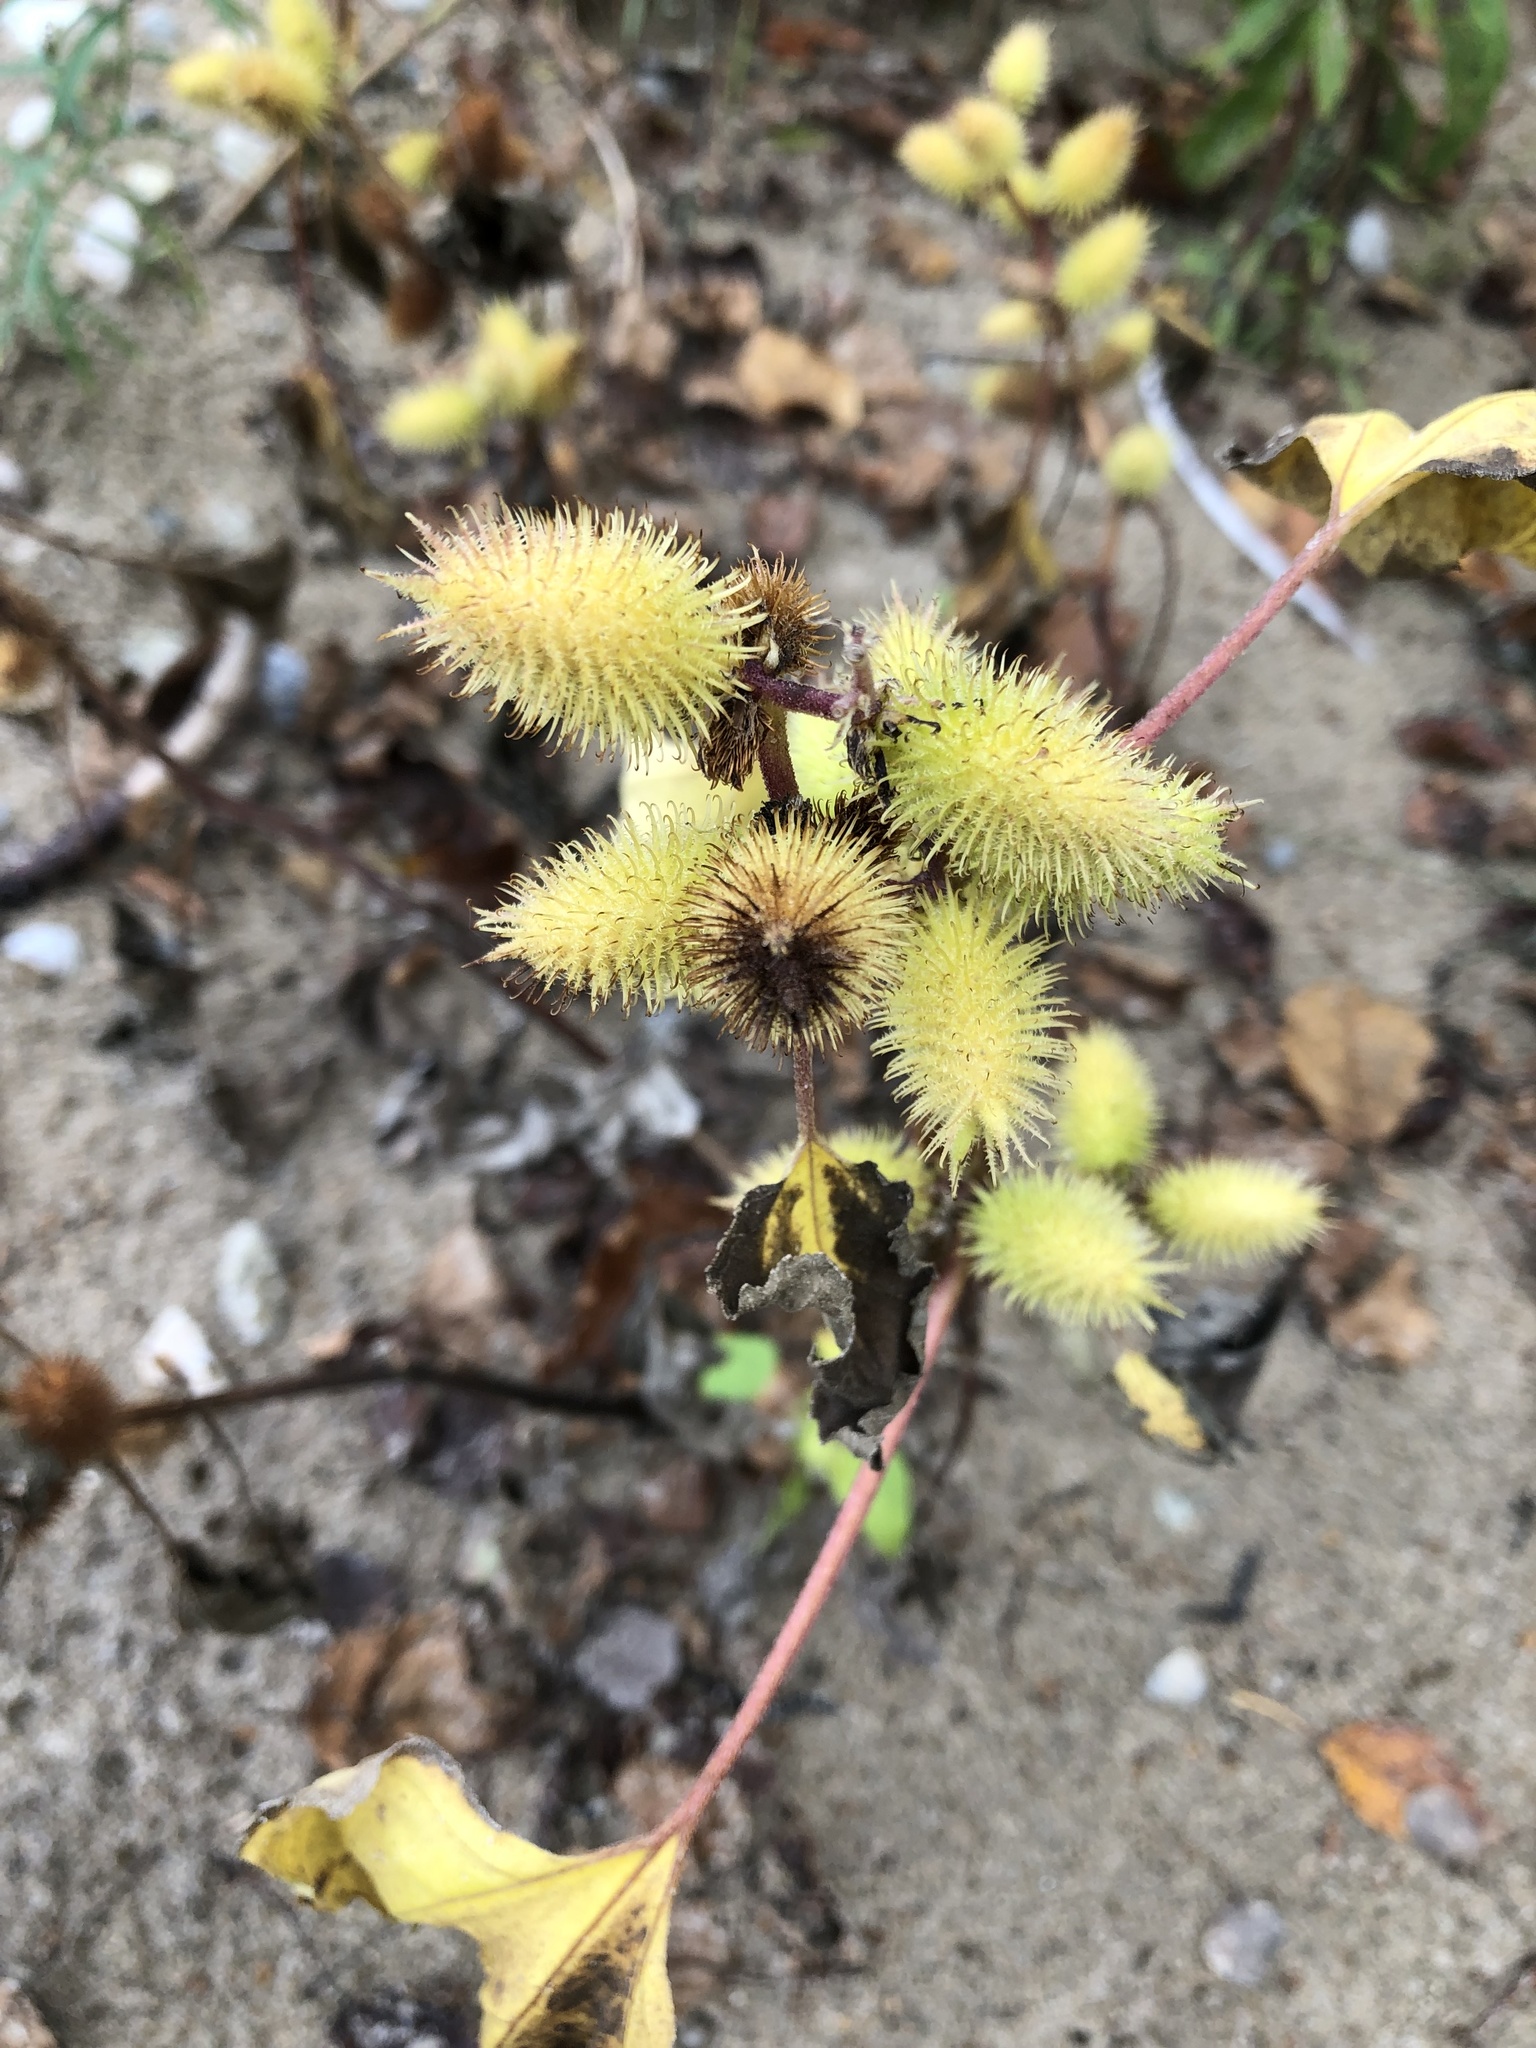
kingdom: Plantae
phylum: Tracheophyta
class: Magnoliopsida
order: Asterales
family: Asteraceae
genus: Xanthium
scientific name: Xanthium strumarium
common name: Rough cocklebur
